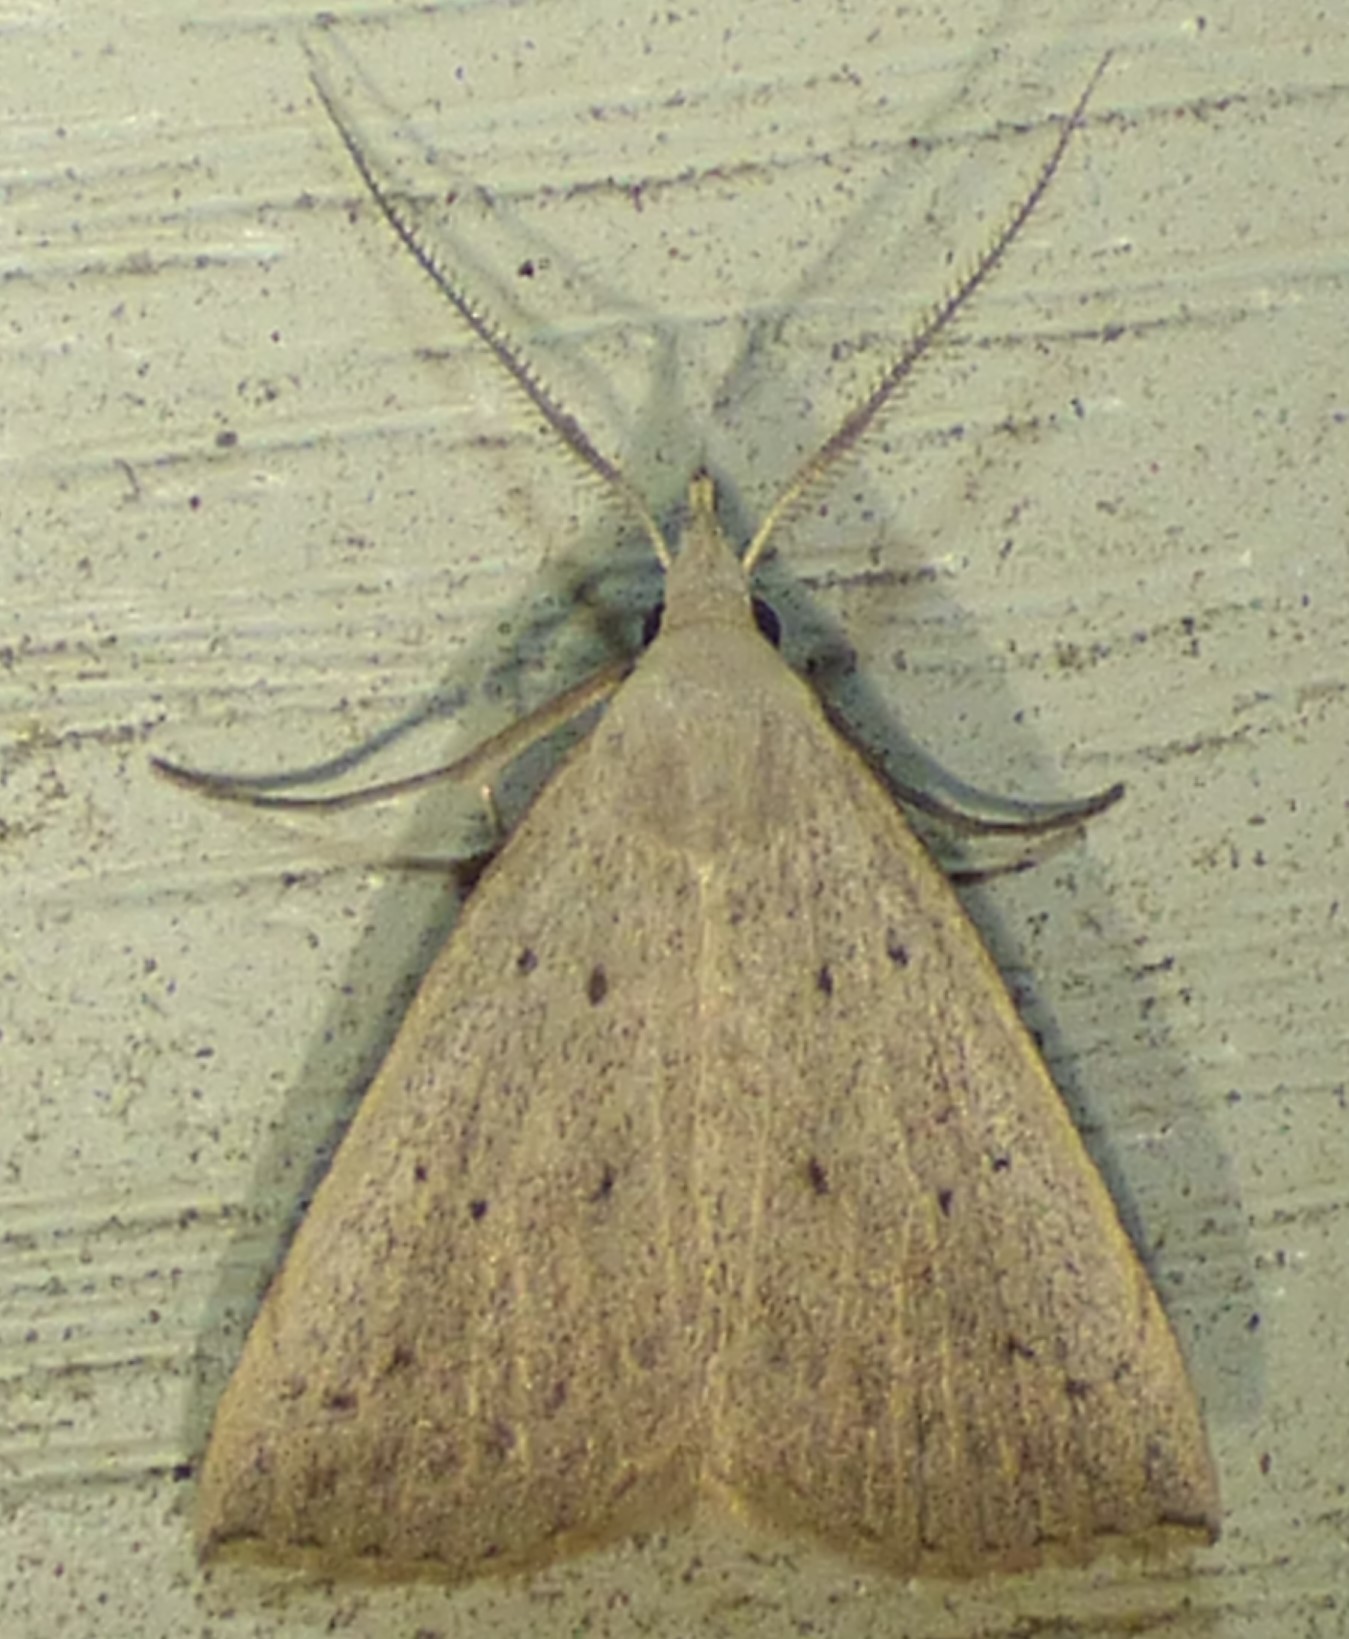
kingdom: Animalia
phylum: Arthropoda
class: Insecta
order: Lepidoptera
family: Erebidae
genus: Macrochilo
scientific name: Macrochilo louisiana
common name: Louisiana macrochilo
